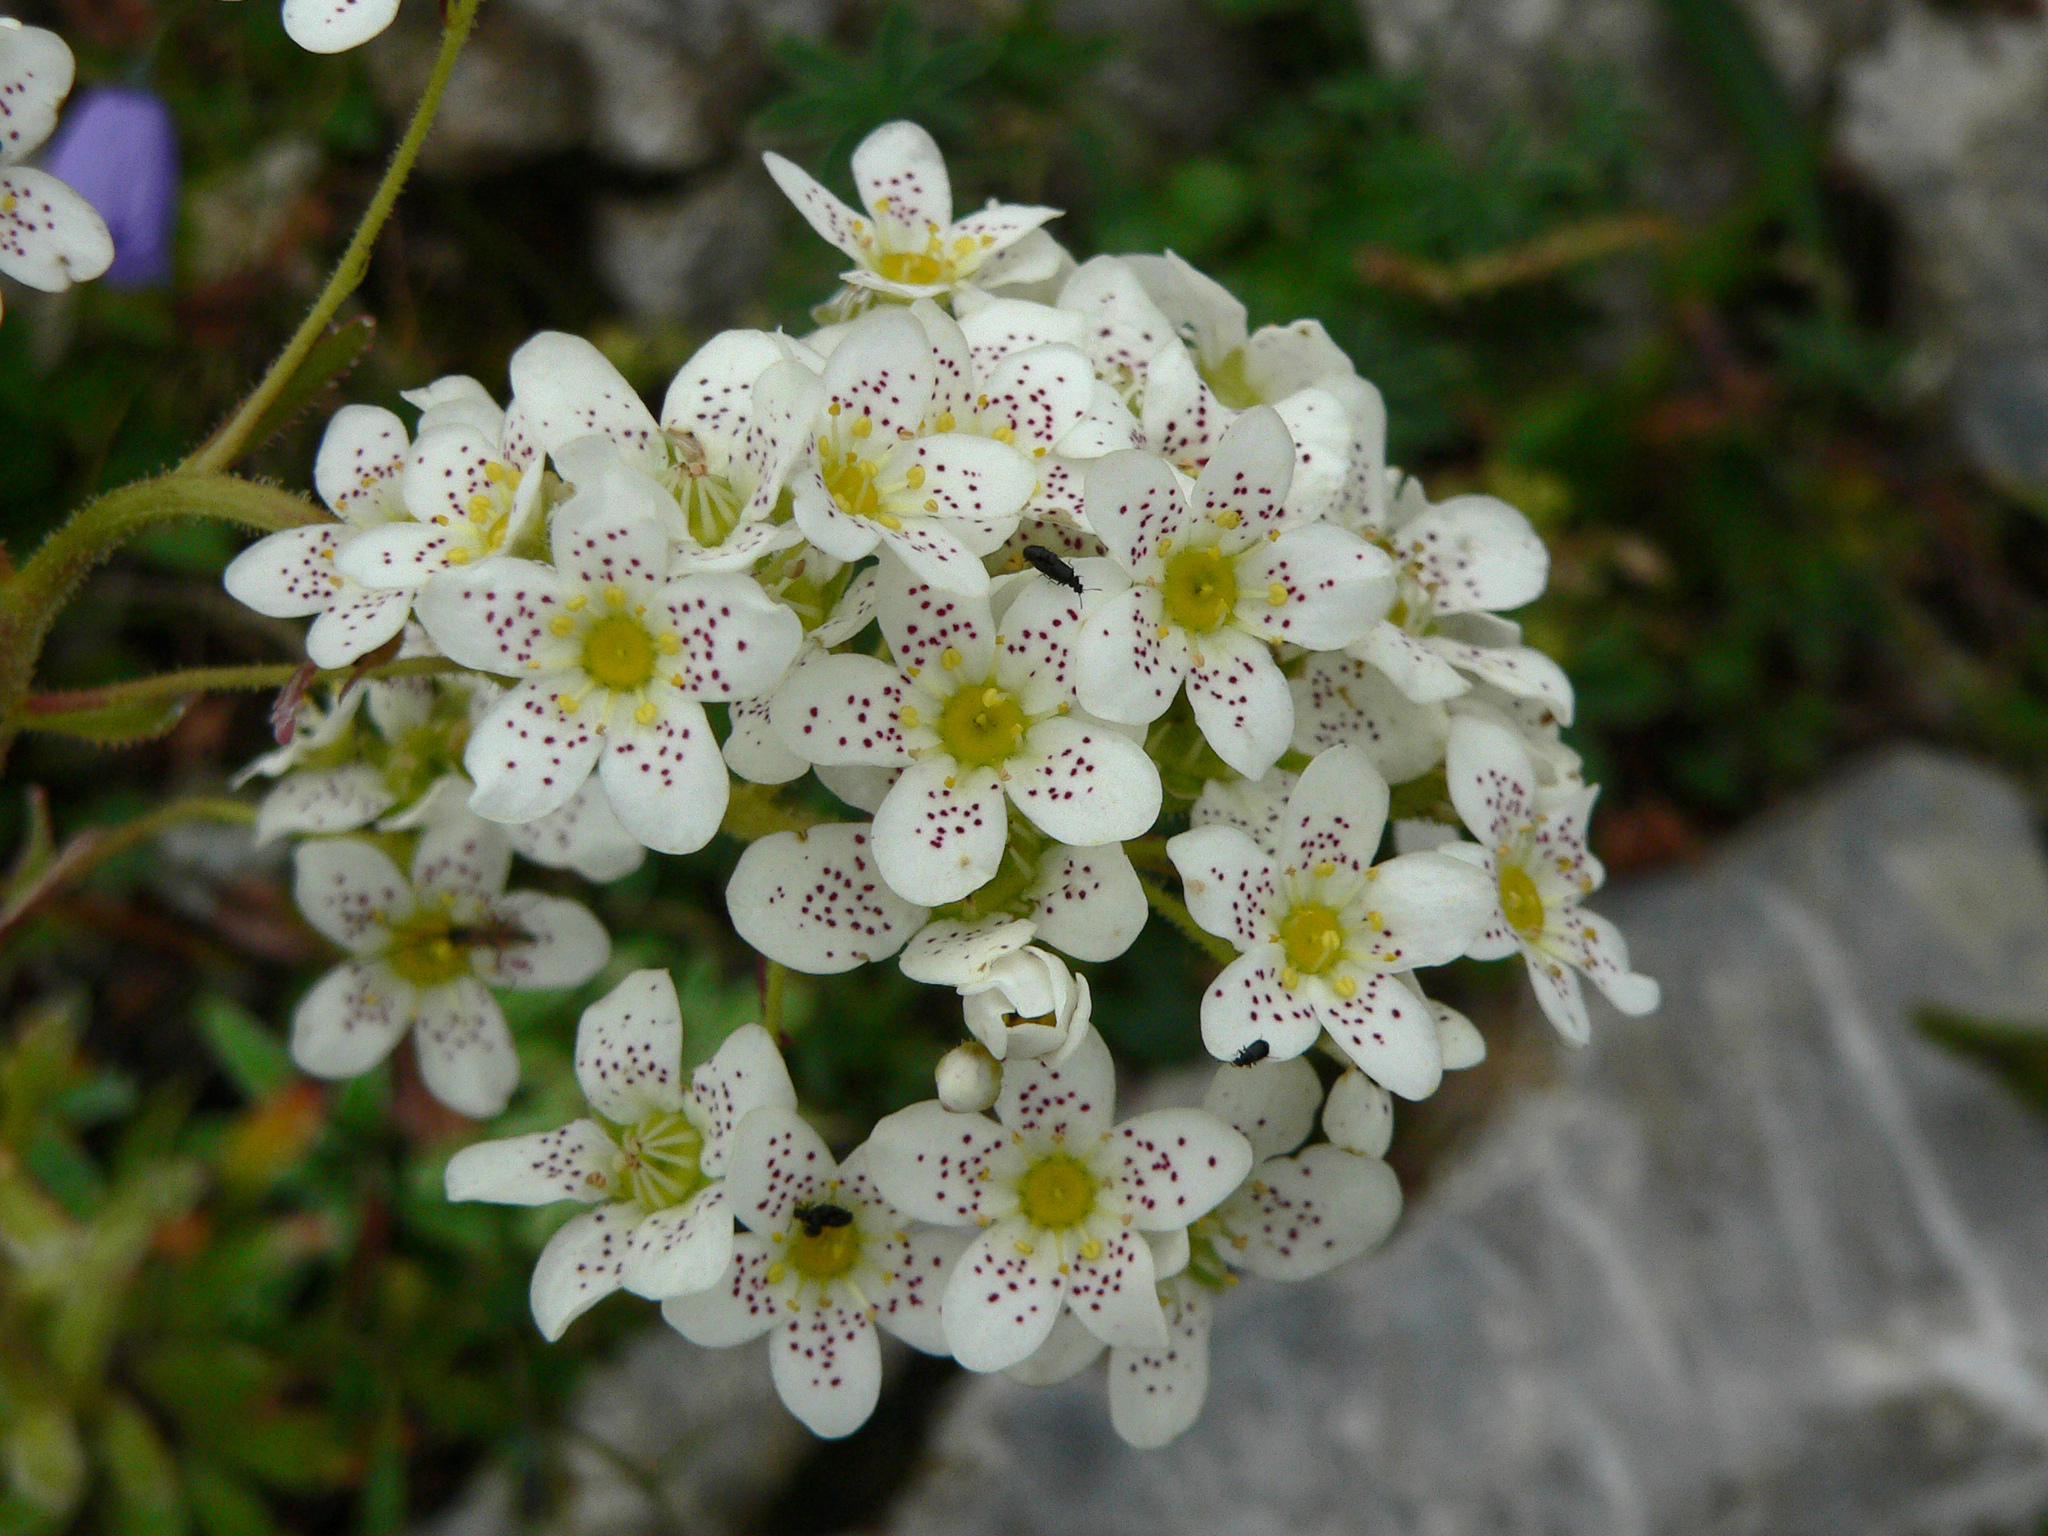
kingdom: Plantae
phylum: Tracheophyta
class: Magnoliopsida
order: Saxifragales
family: Saxifragaceae
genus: Saxifraga
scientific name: Saxifraga hostii
